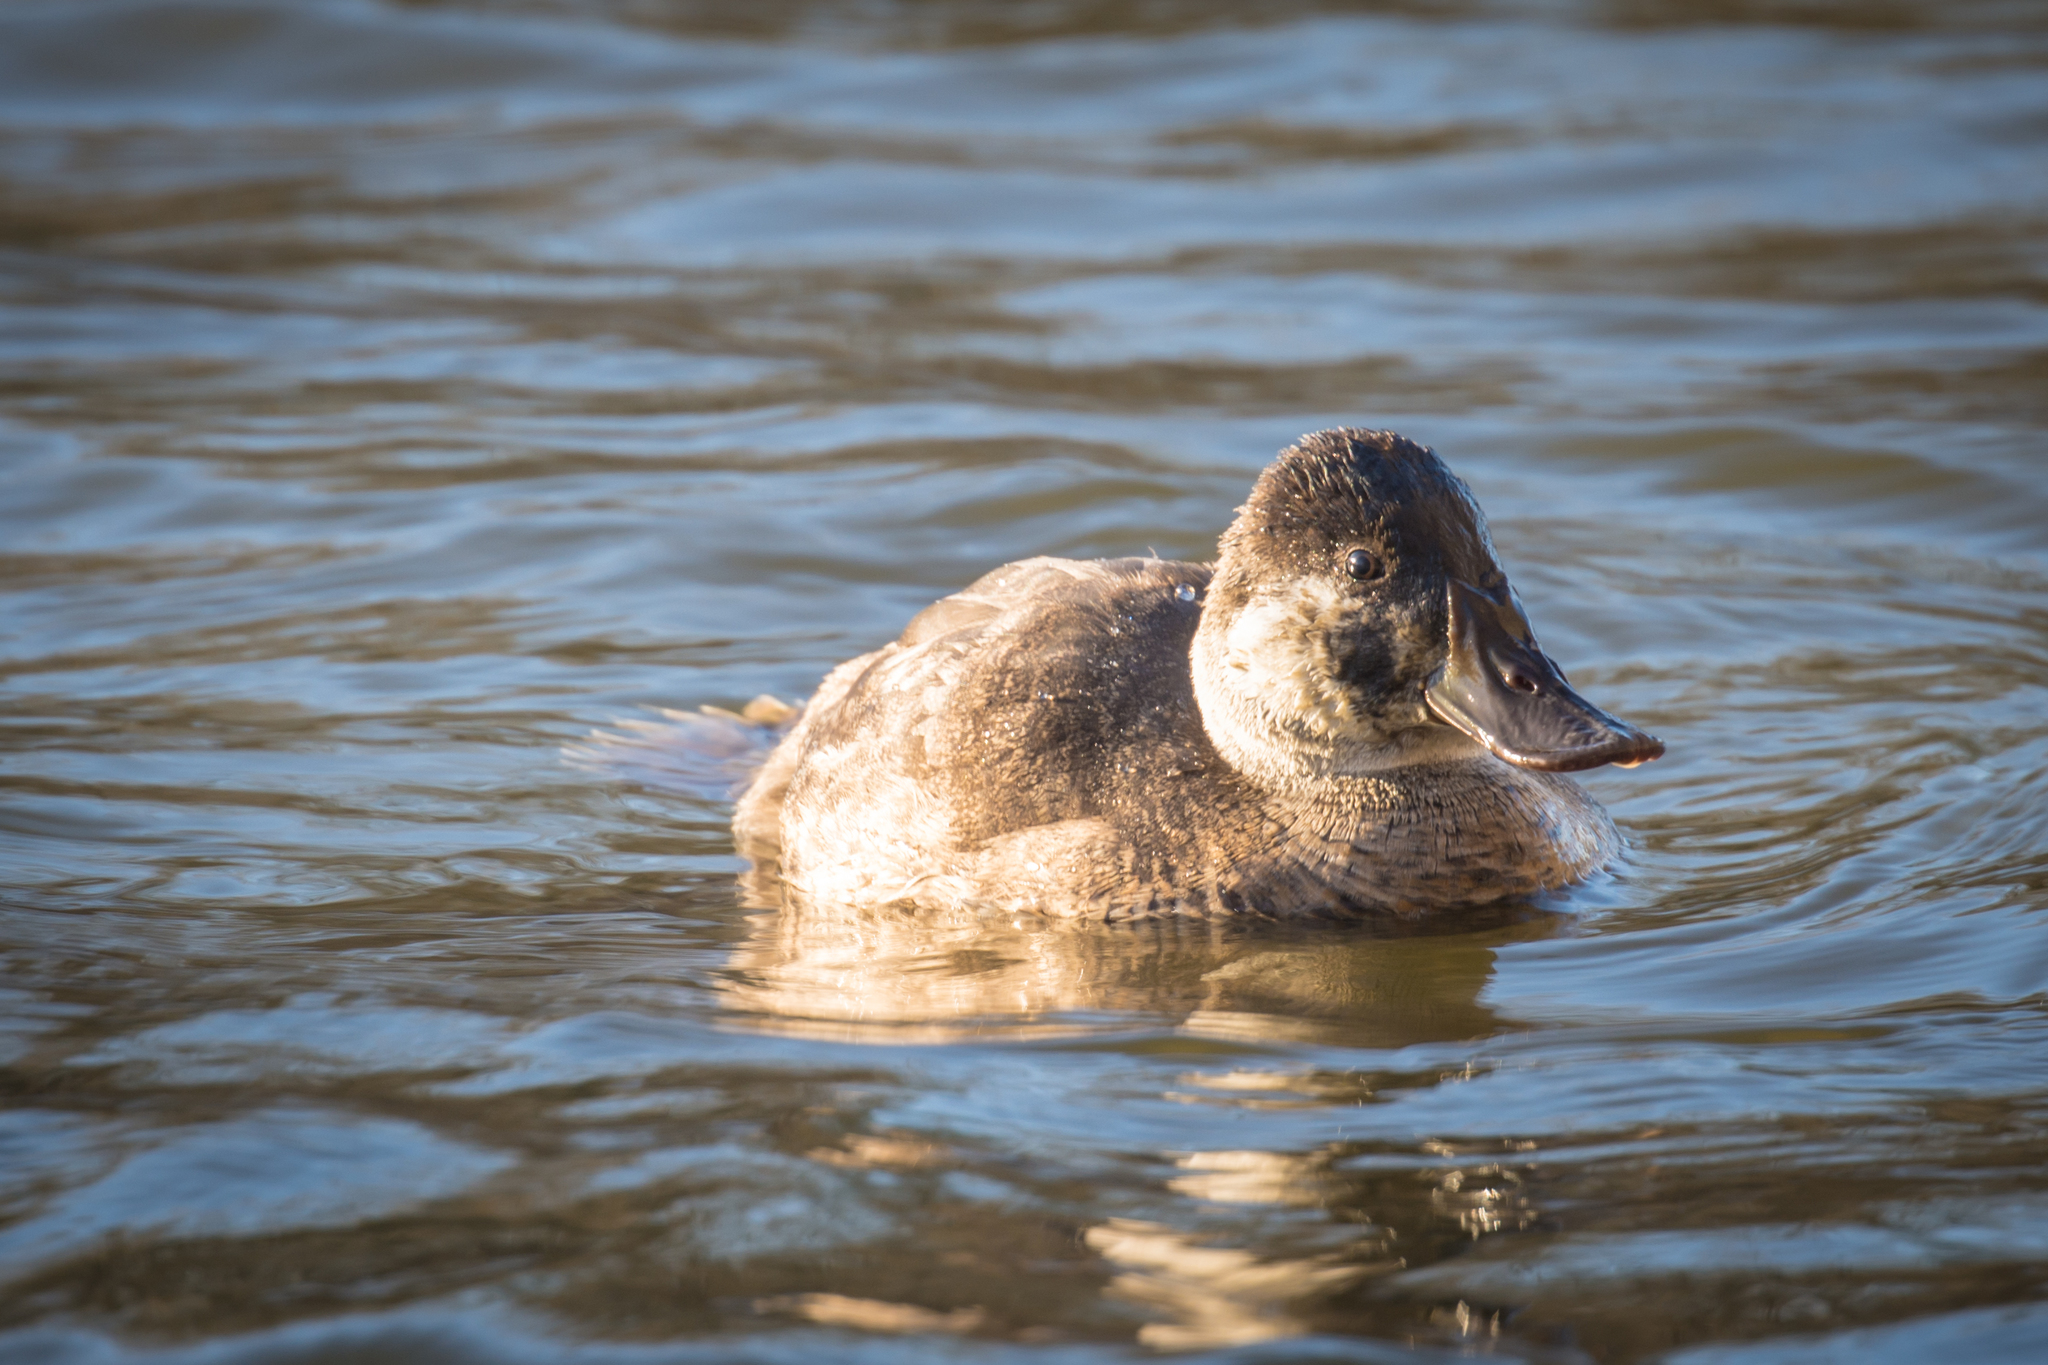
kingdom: Animalia
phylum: Chordata
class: Aves
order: Anseriformes
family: Anatidae
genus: Oxyura
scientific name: Oxyura jamaicensis
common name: Ruddy duck
